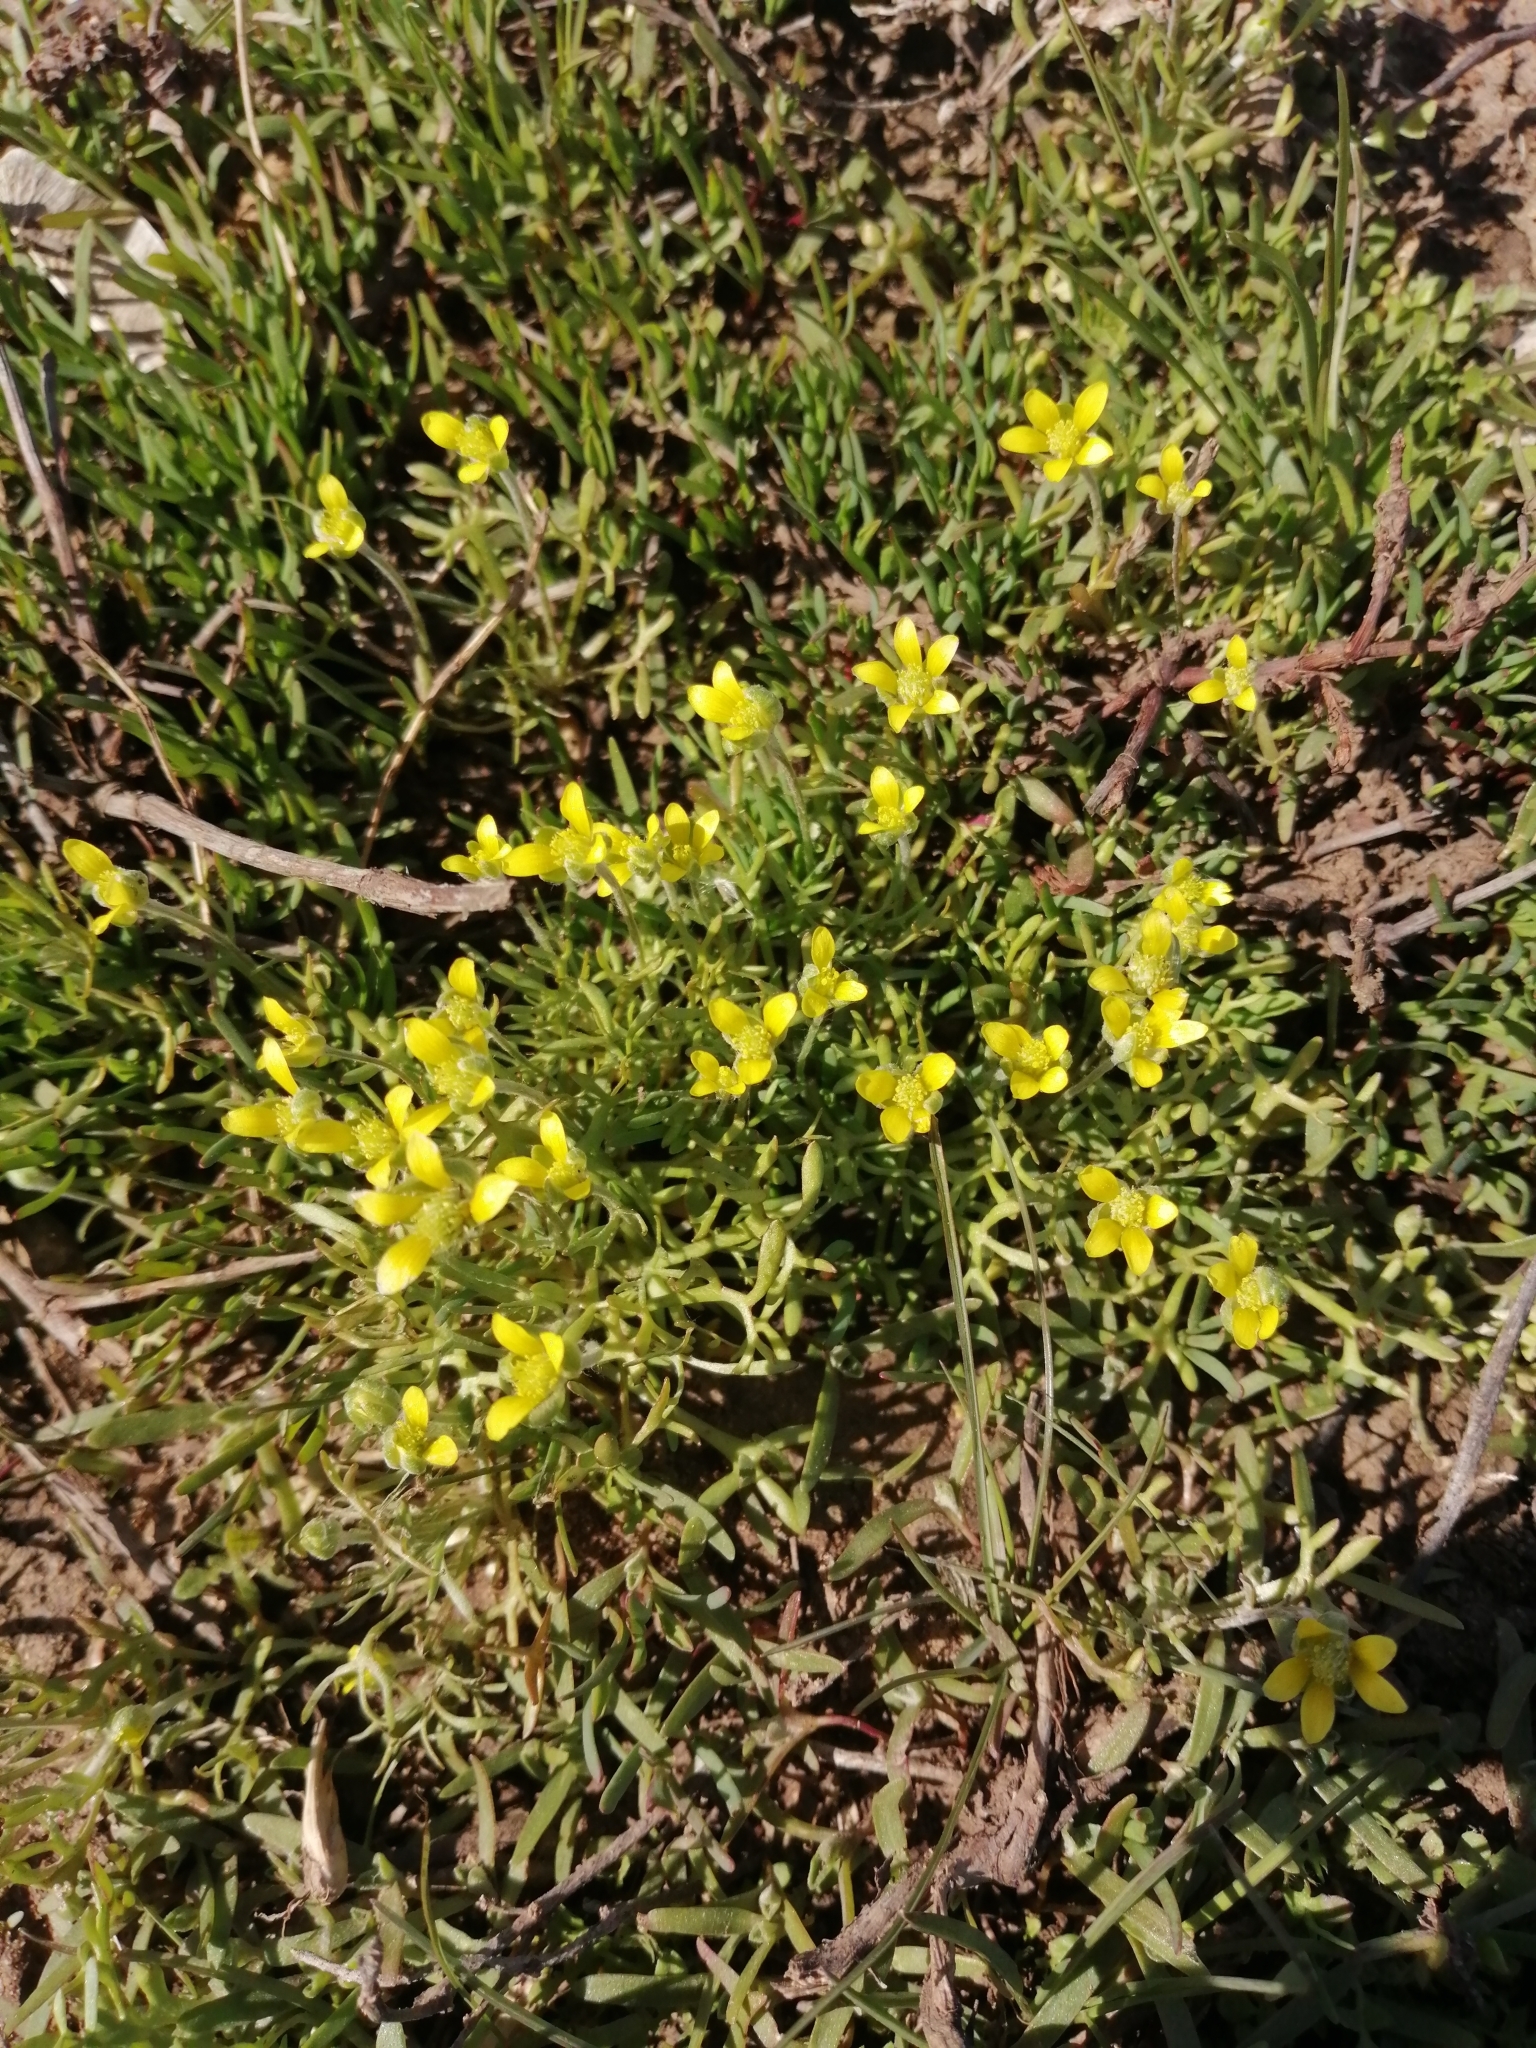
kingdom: Plantae
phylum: Tracheophyta
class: Magnoliopsida
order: Ranunculales
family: Ranunculaceae
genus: Ceratocephala
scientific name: Ceratocephala orthoceras
